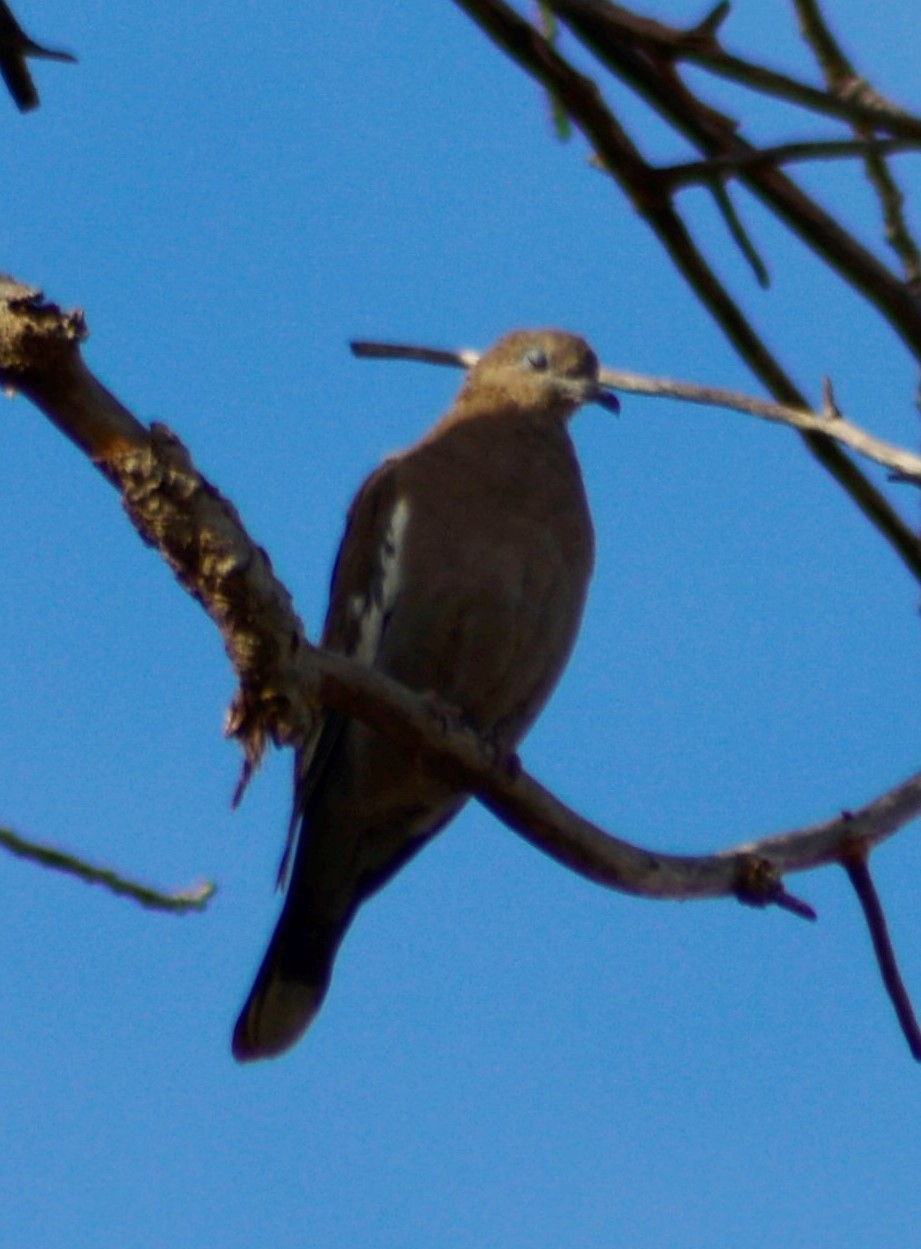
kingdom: Animalia
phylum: Chordata
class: Aves
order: Columbiformes
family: Columbidae
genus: Zenaida
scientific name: Zenaida meloda
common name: West peruvian dove
